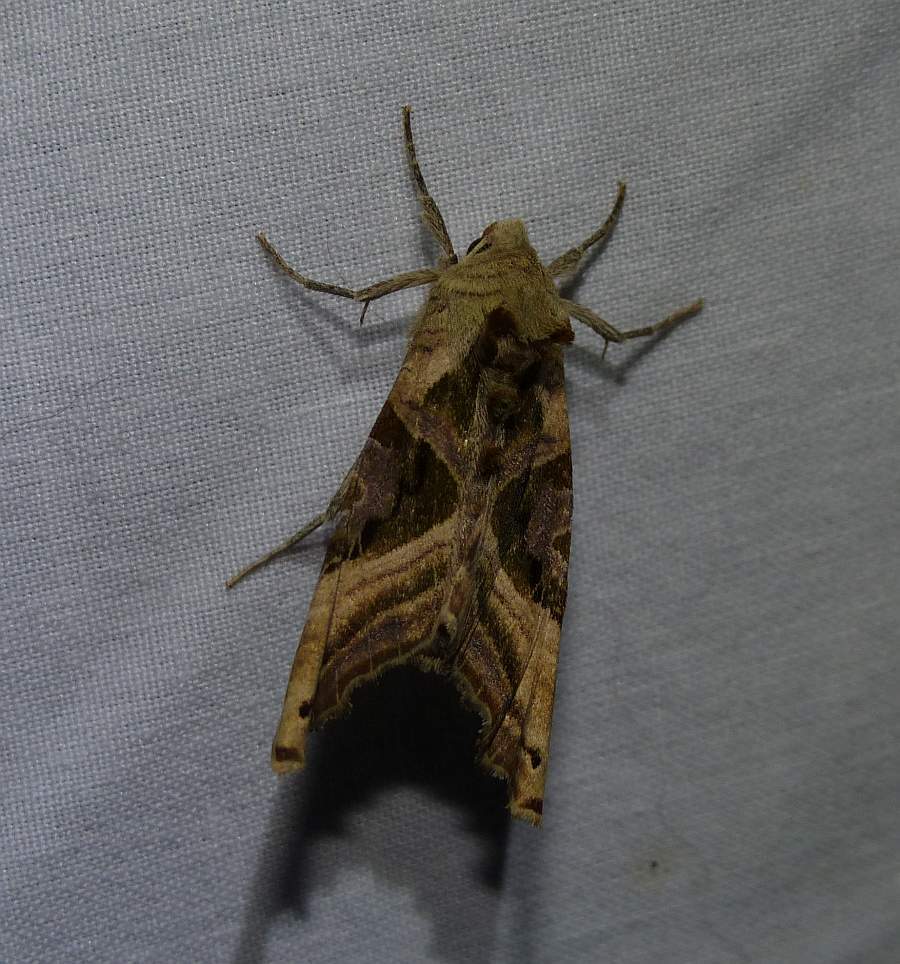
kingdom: Animalia
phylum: Arthropoda
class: Insecta
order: Lepidoptera
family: Noctuidae
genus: Phlogophora
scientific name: Phlogophora iris
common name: Olive angle shades
